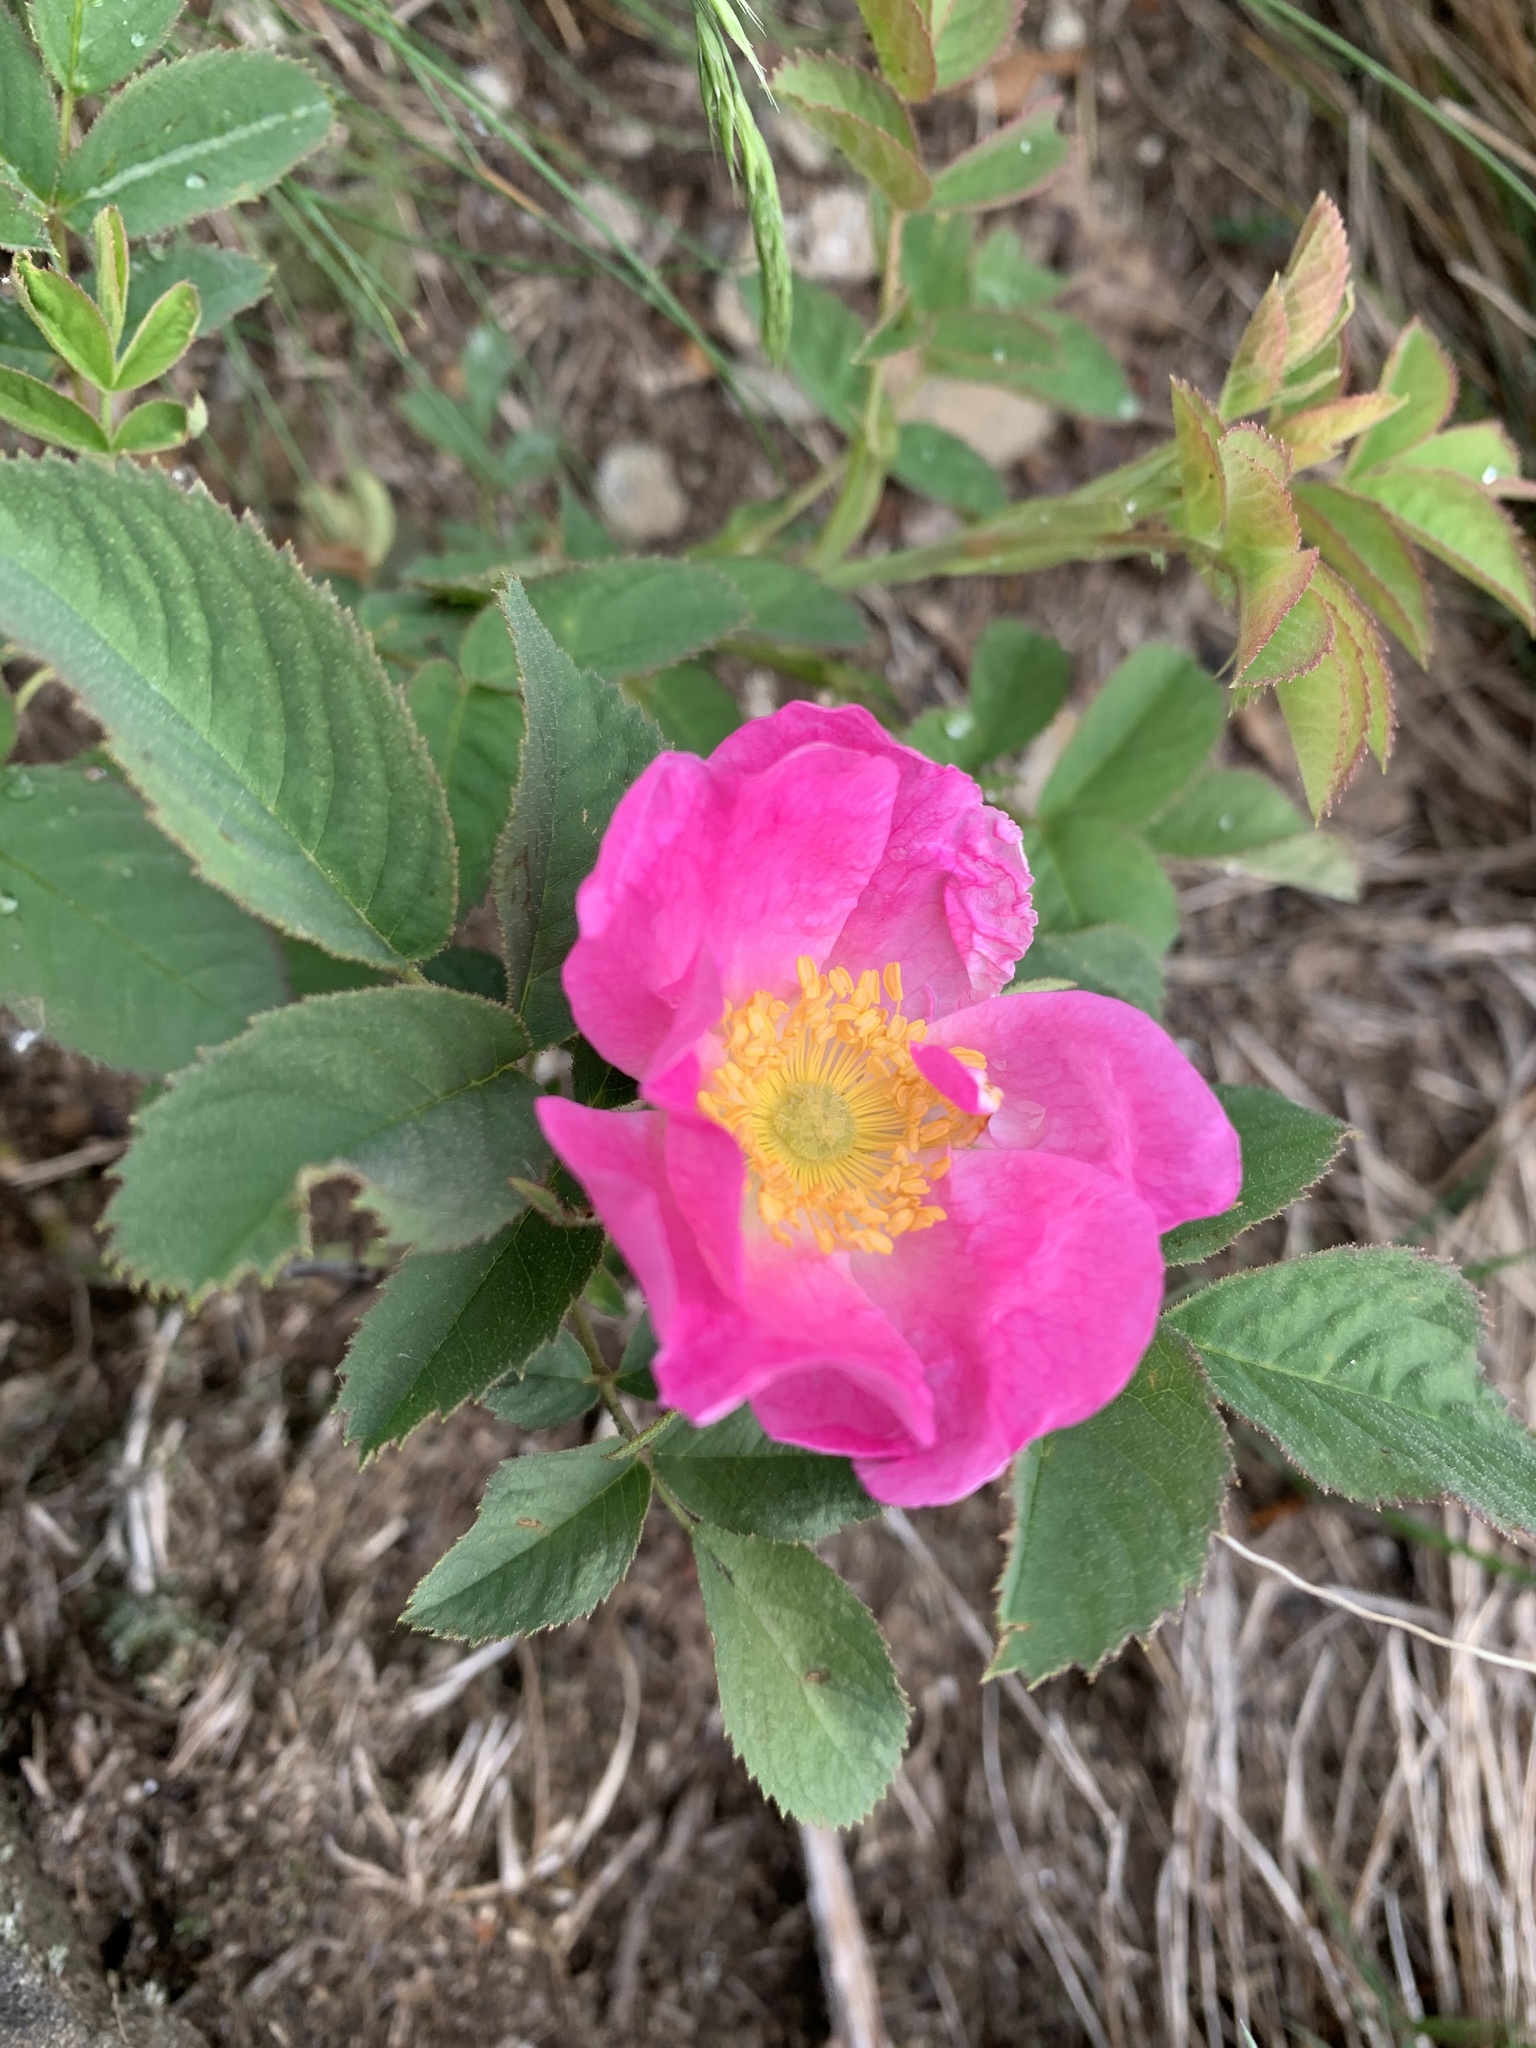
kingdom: Plantae
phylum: Tracheophyta
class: Magnoliopsida
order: Rosales
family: Rosaceae
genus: Rosa
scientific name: Rosa
